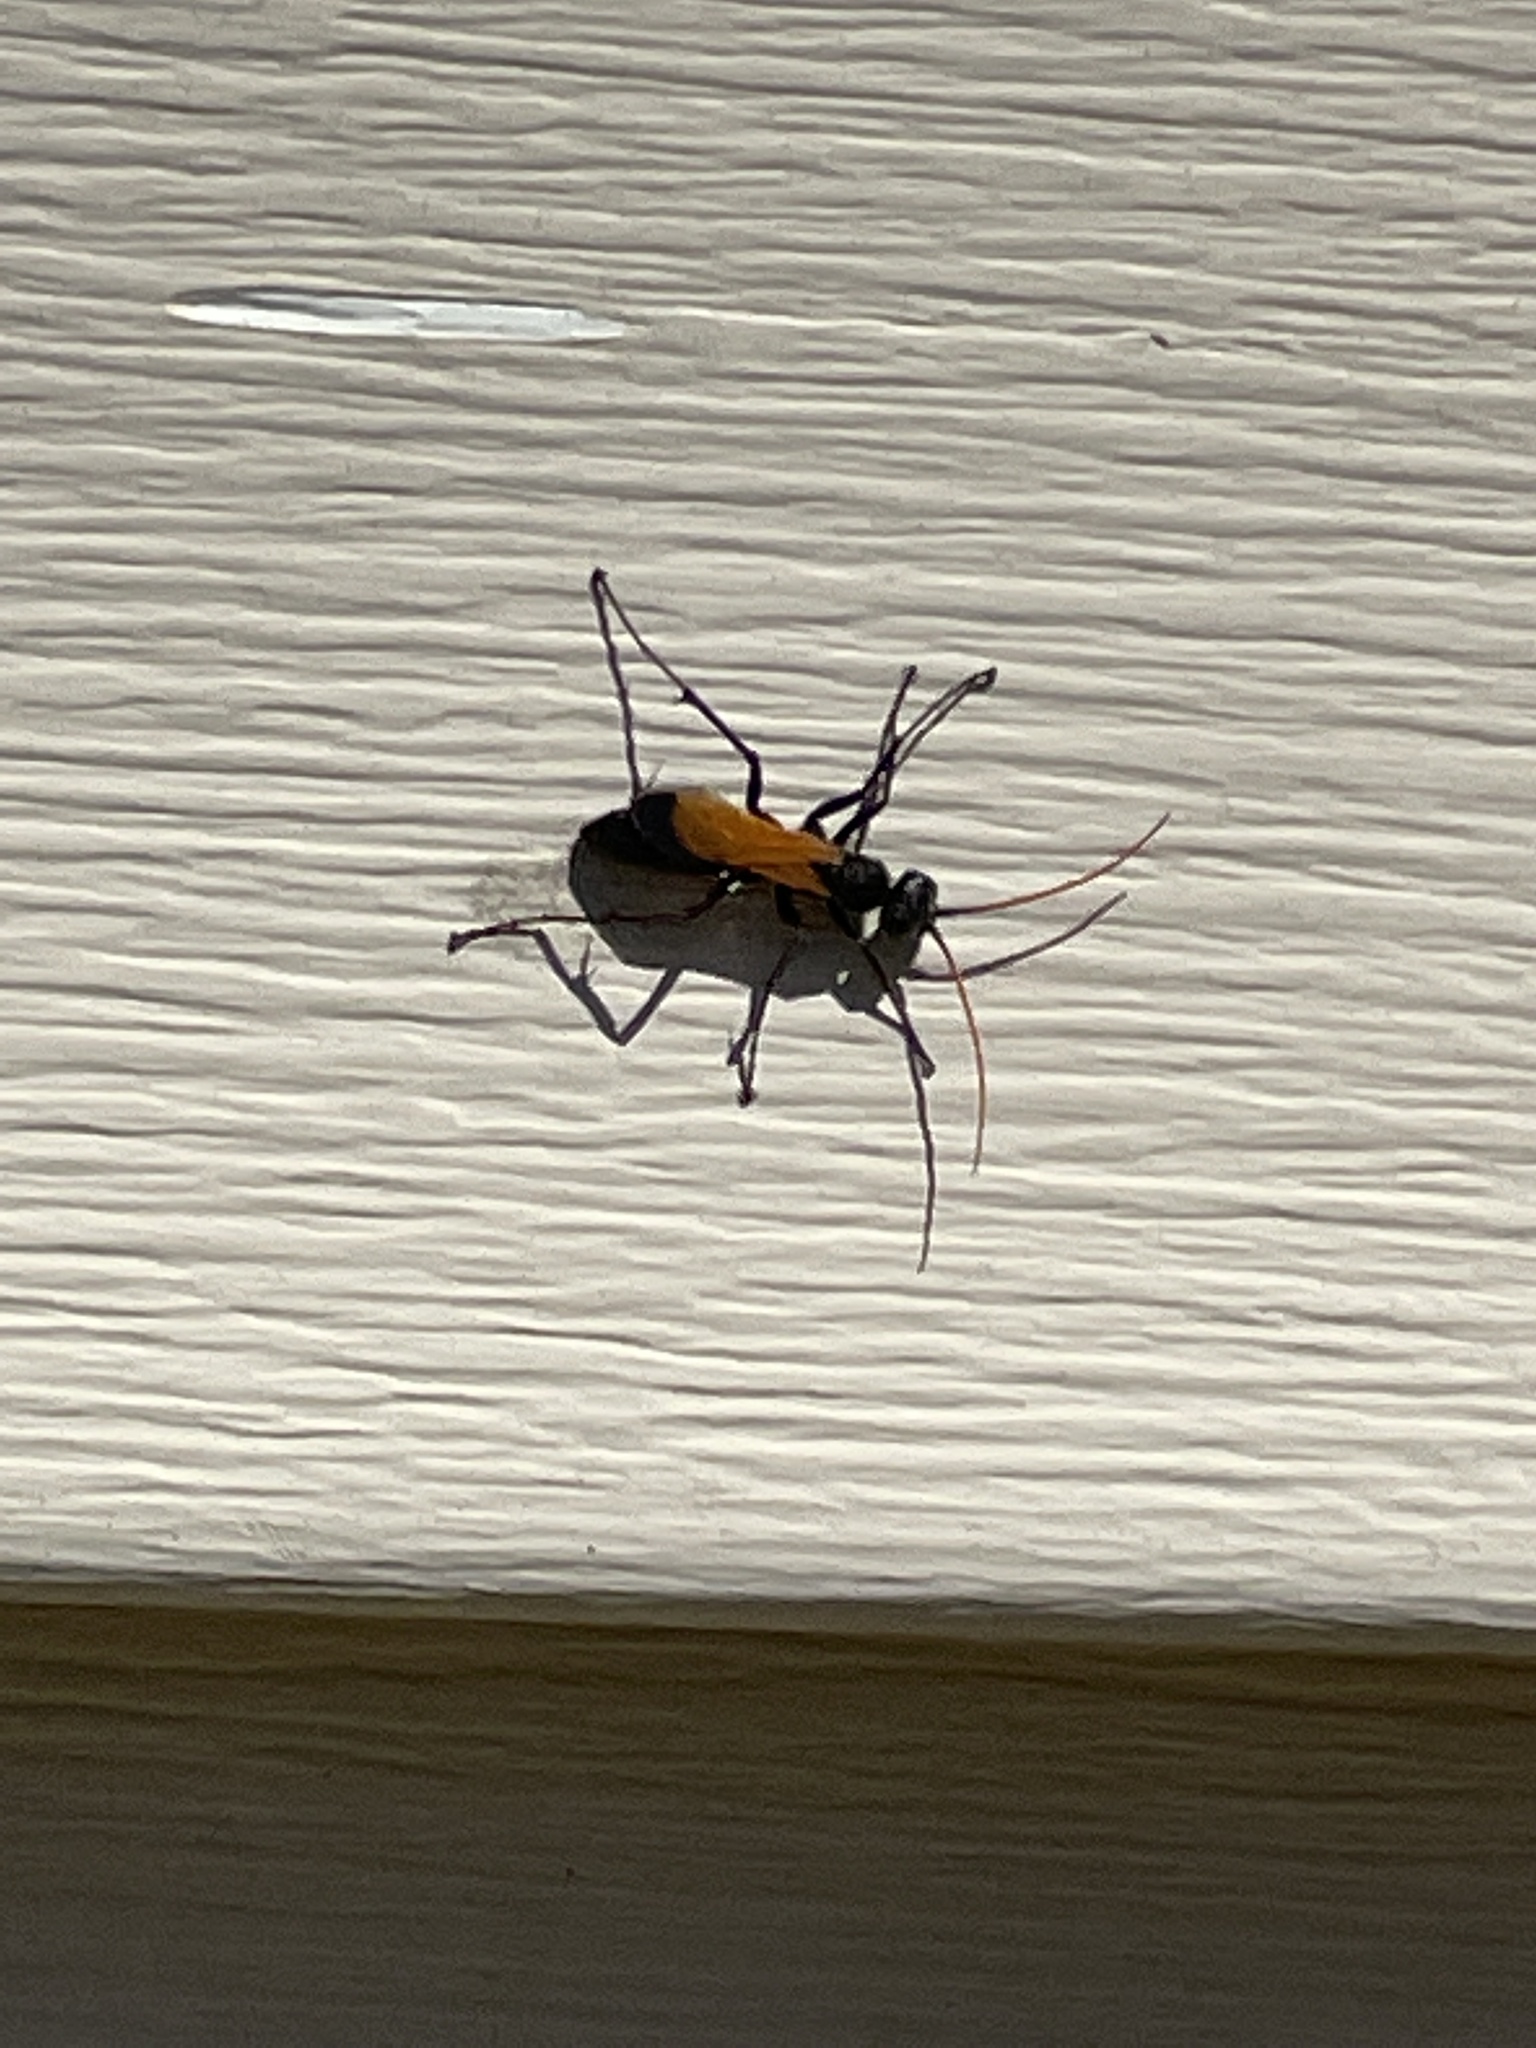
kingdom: Animalia
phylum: Arthropoda
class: Insecta
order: Hymenoptera
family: Pompilidae
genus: Cryptocheilus
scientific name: Cryptocheilus attenuatum
